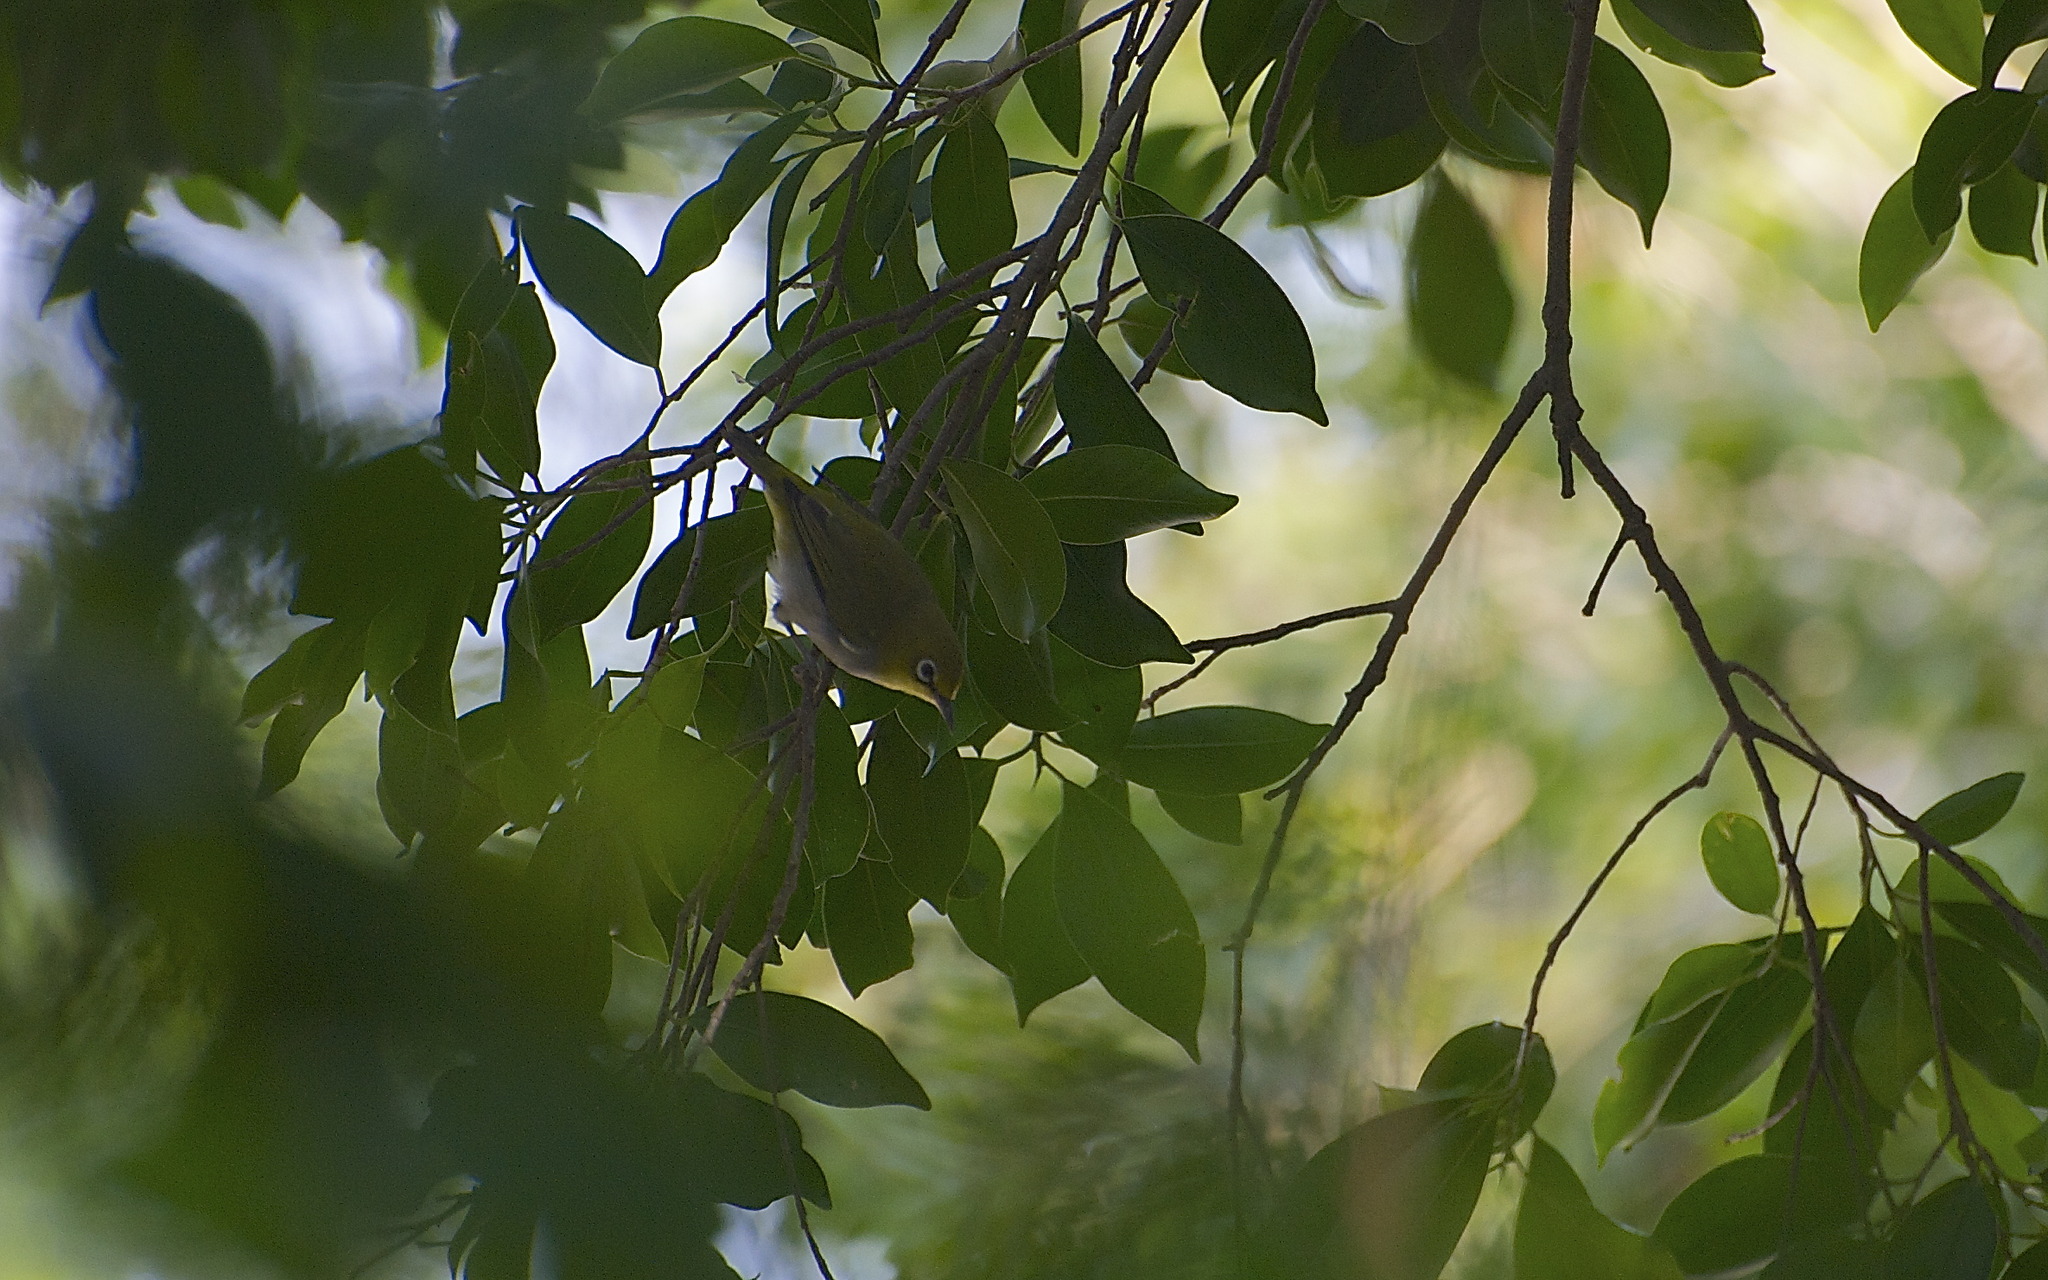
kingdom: Animalia
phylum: Chordata
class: Aves
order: Passeriformes
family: Zosteropidae
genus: Zosterops
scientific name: Zosterops simplex
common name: Swinhoe's white-eye
